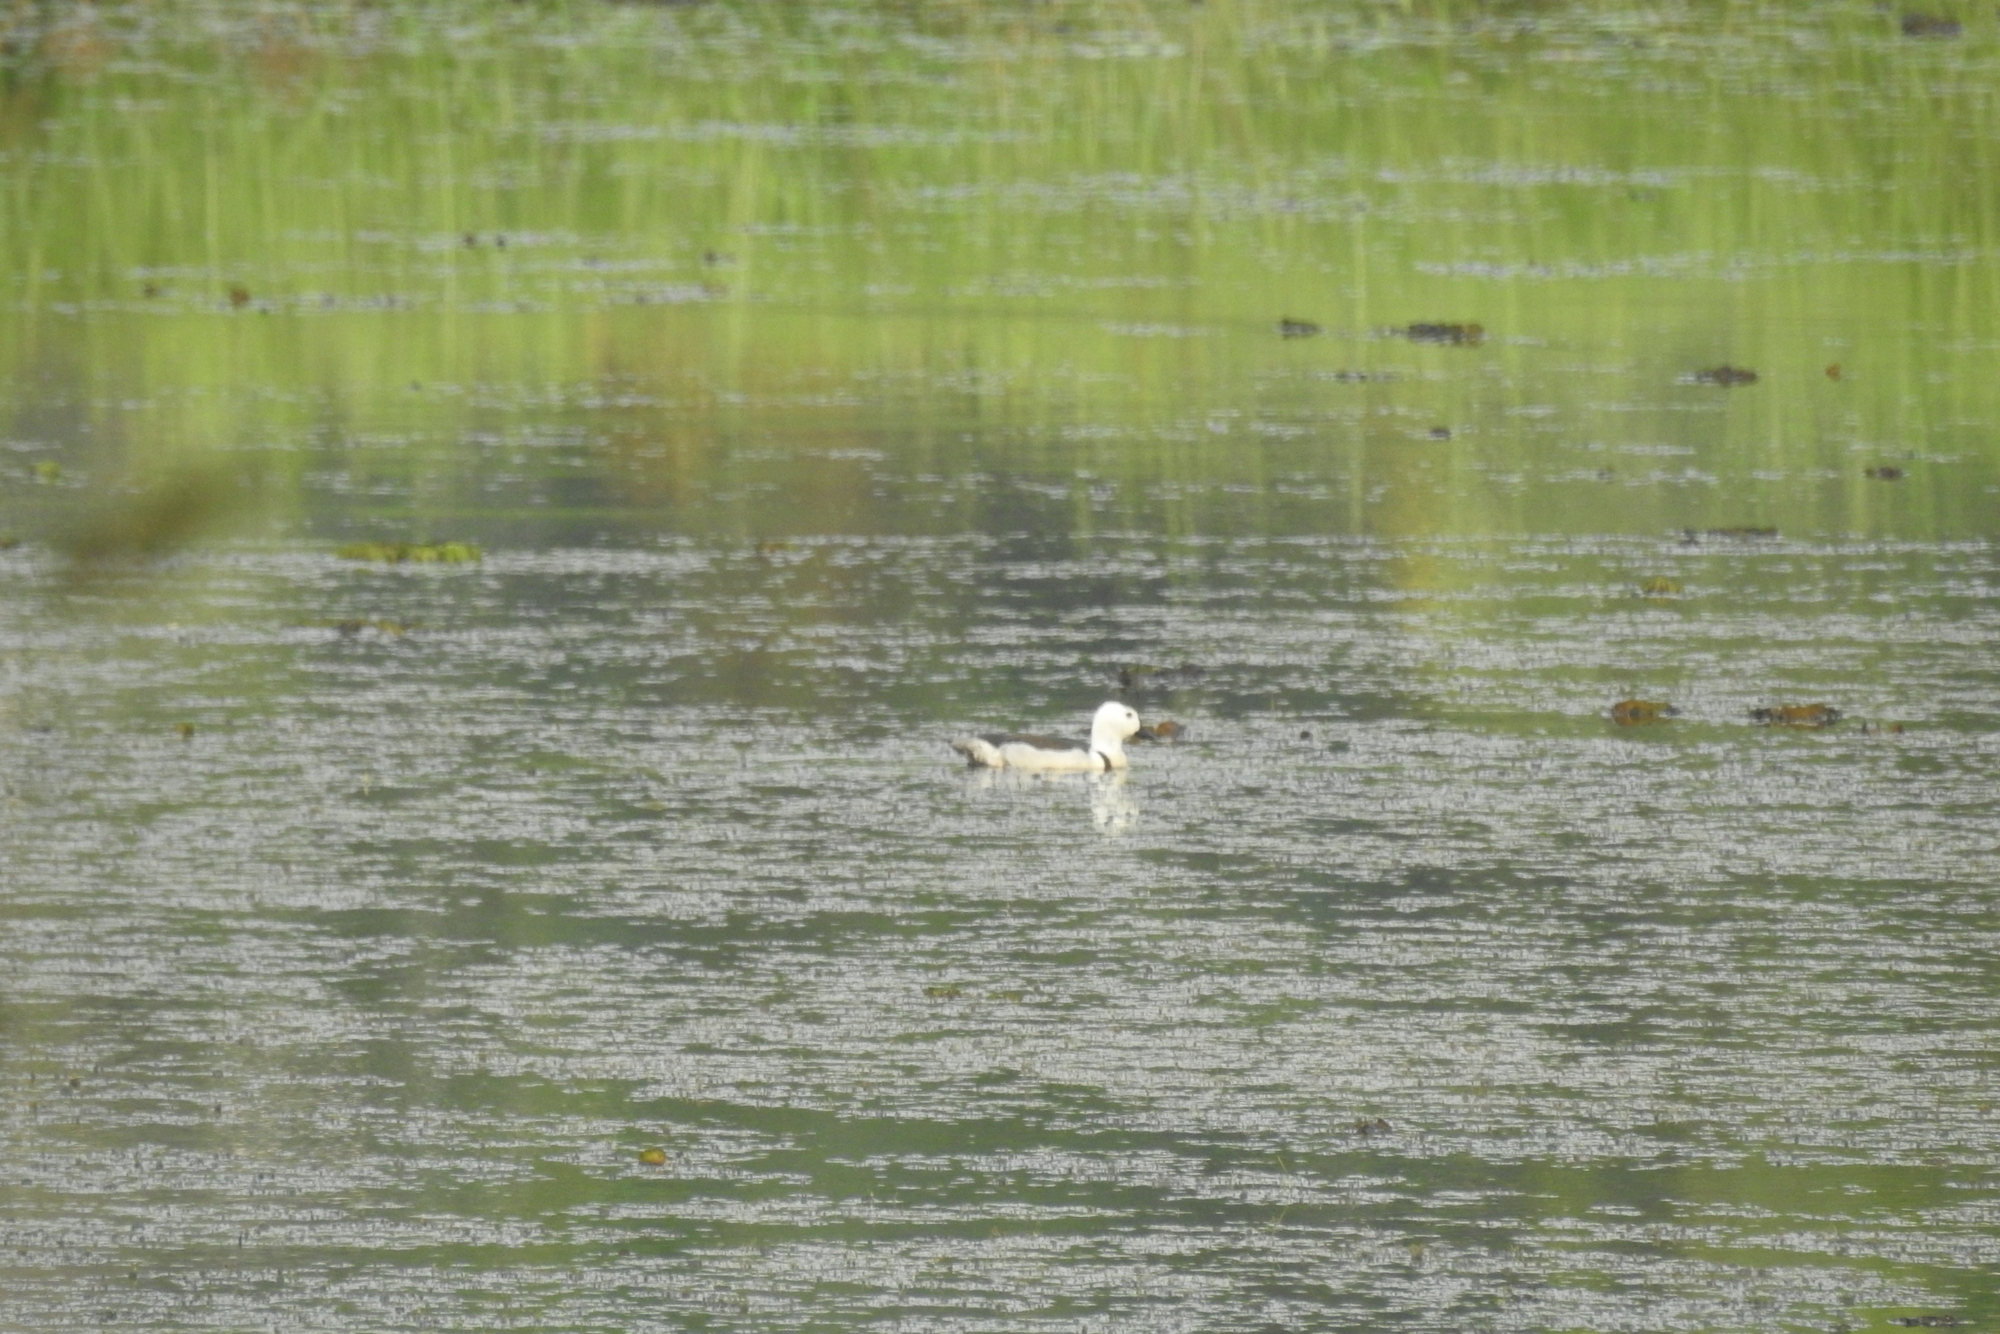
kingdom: Animalia
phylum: Chordata
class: Aves
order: Anseriformes
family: Anatidae
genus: Nettapus
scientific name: Nettapus coromandelianus
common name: Cotton pygmy-goose
